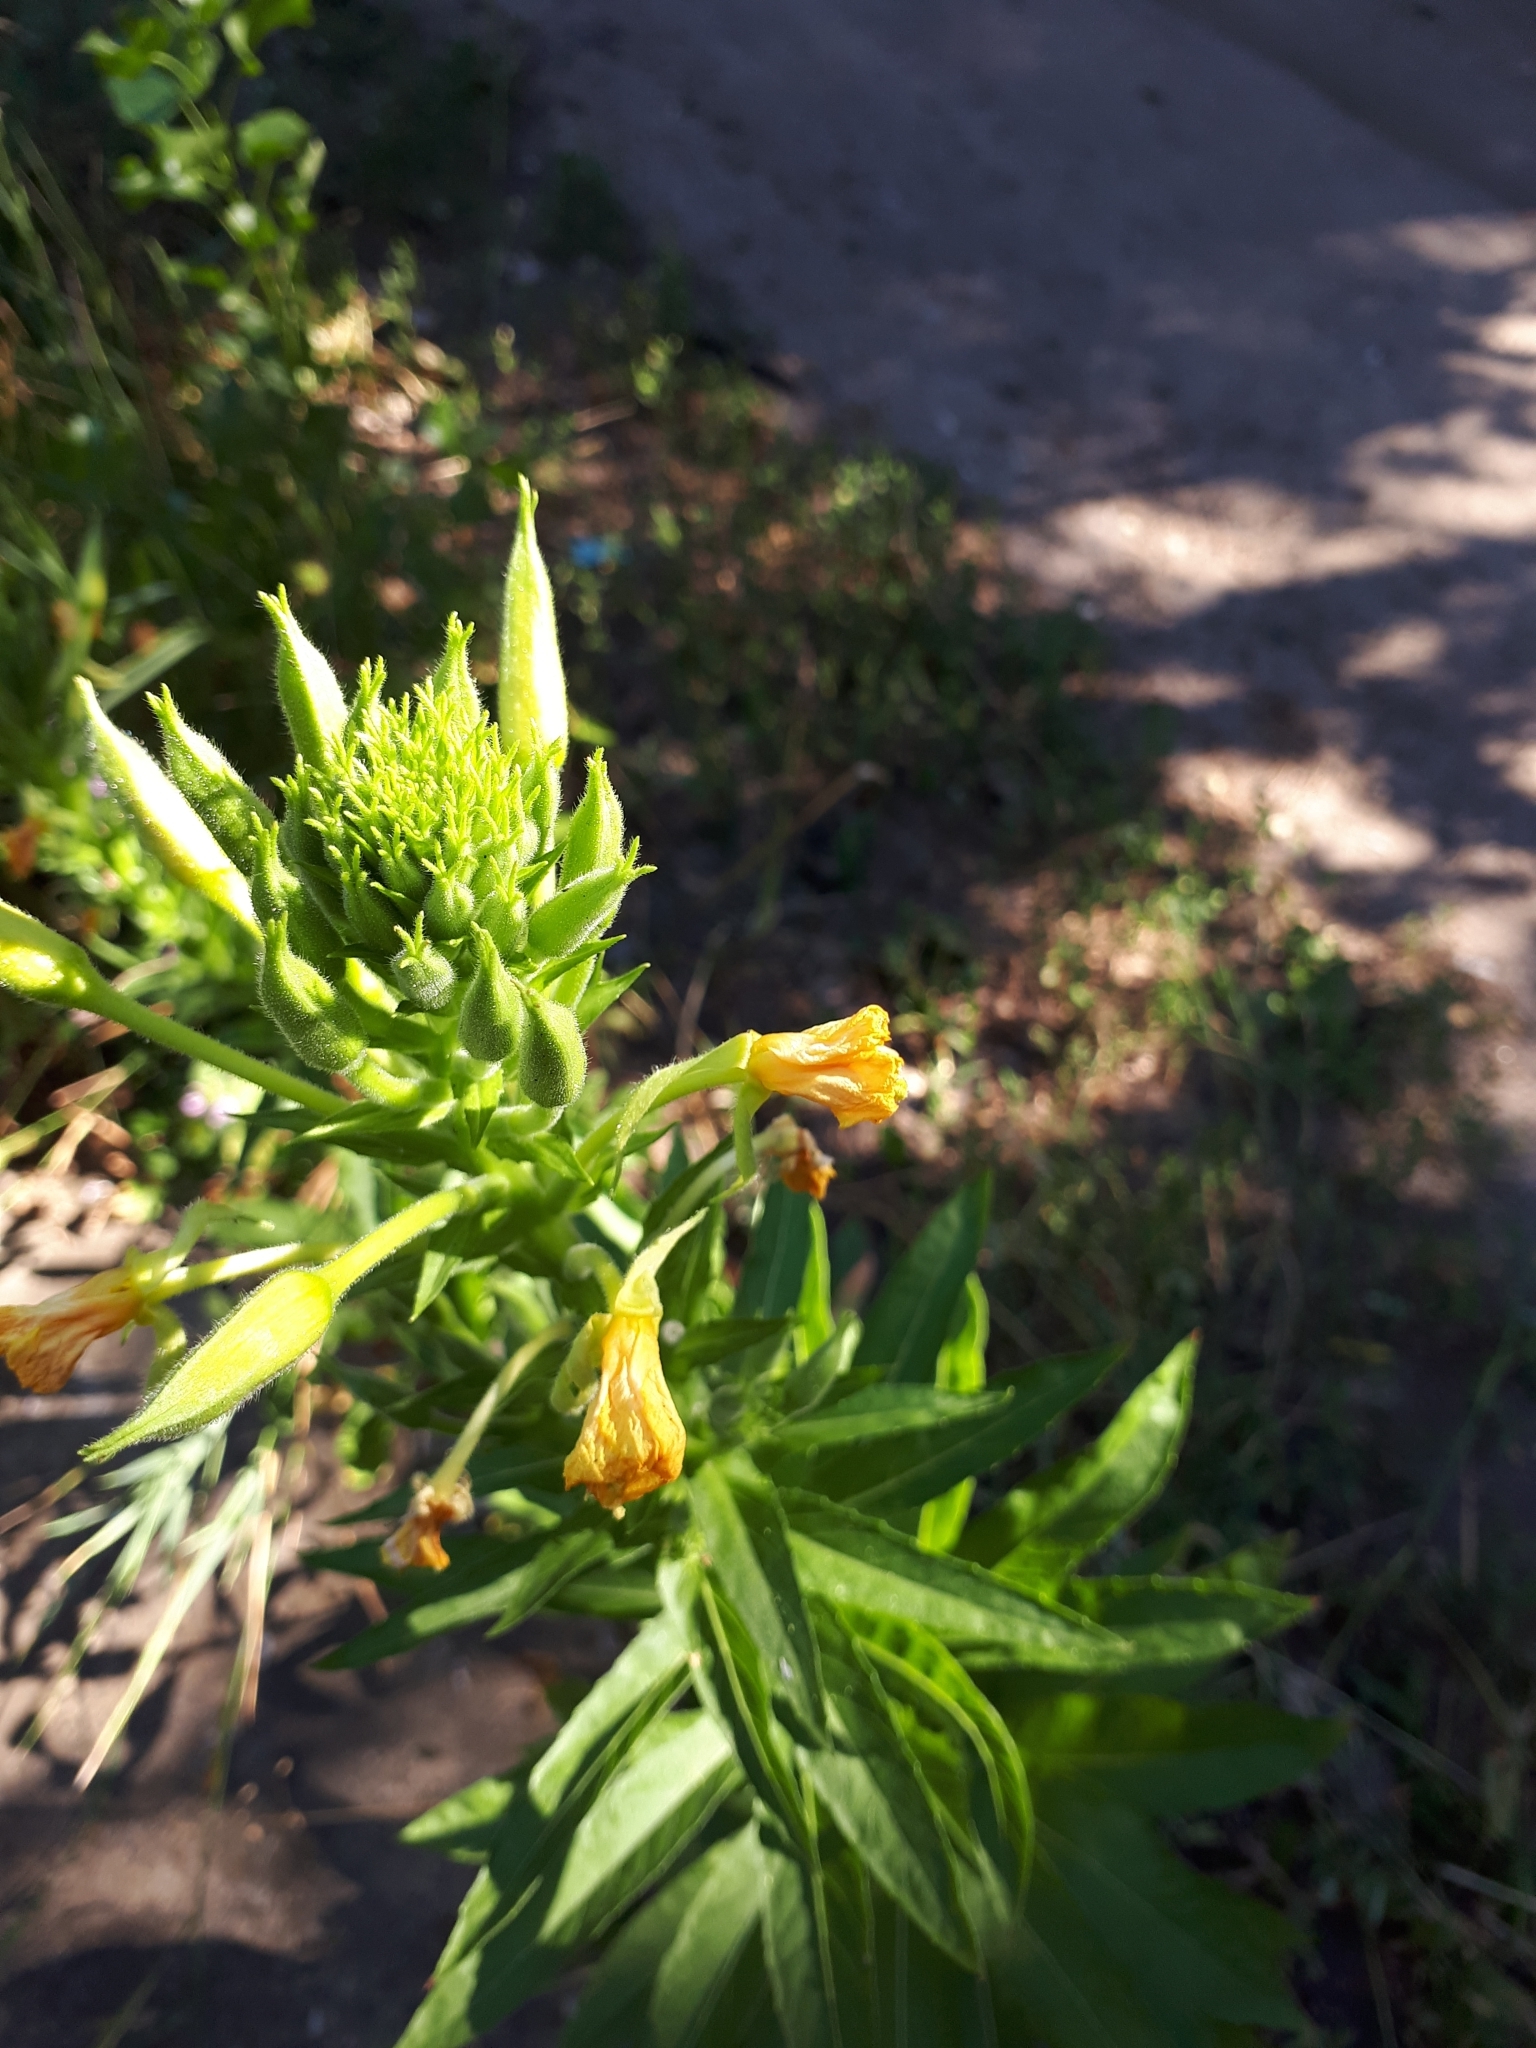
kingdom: Plantae
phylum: Tracheophyta
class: Magnoliopsida
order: Myrtales
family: Onagraceae
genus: Oenothera
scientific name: Oenothera biennis
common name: Common evening-primrose
